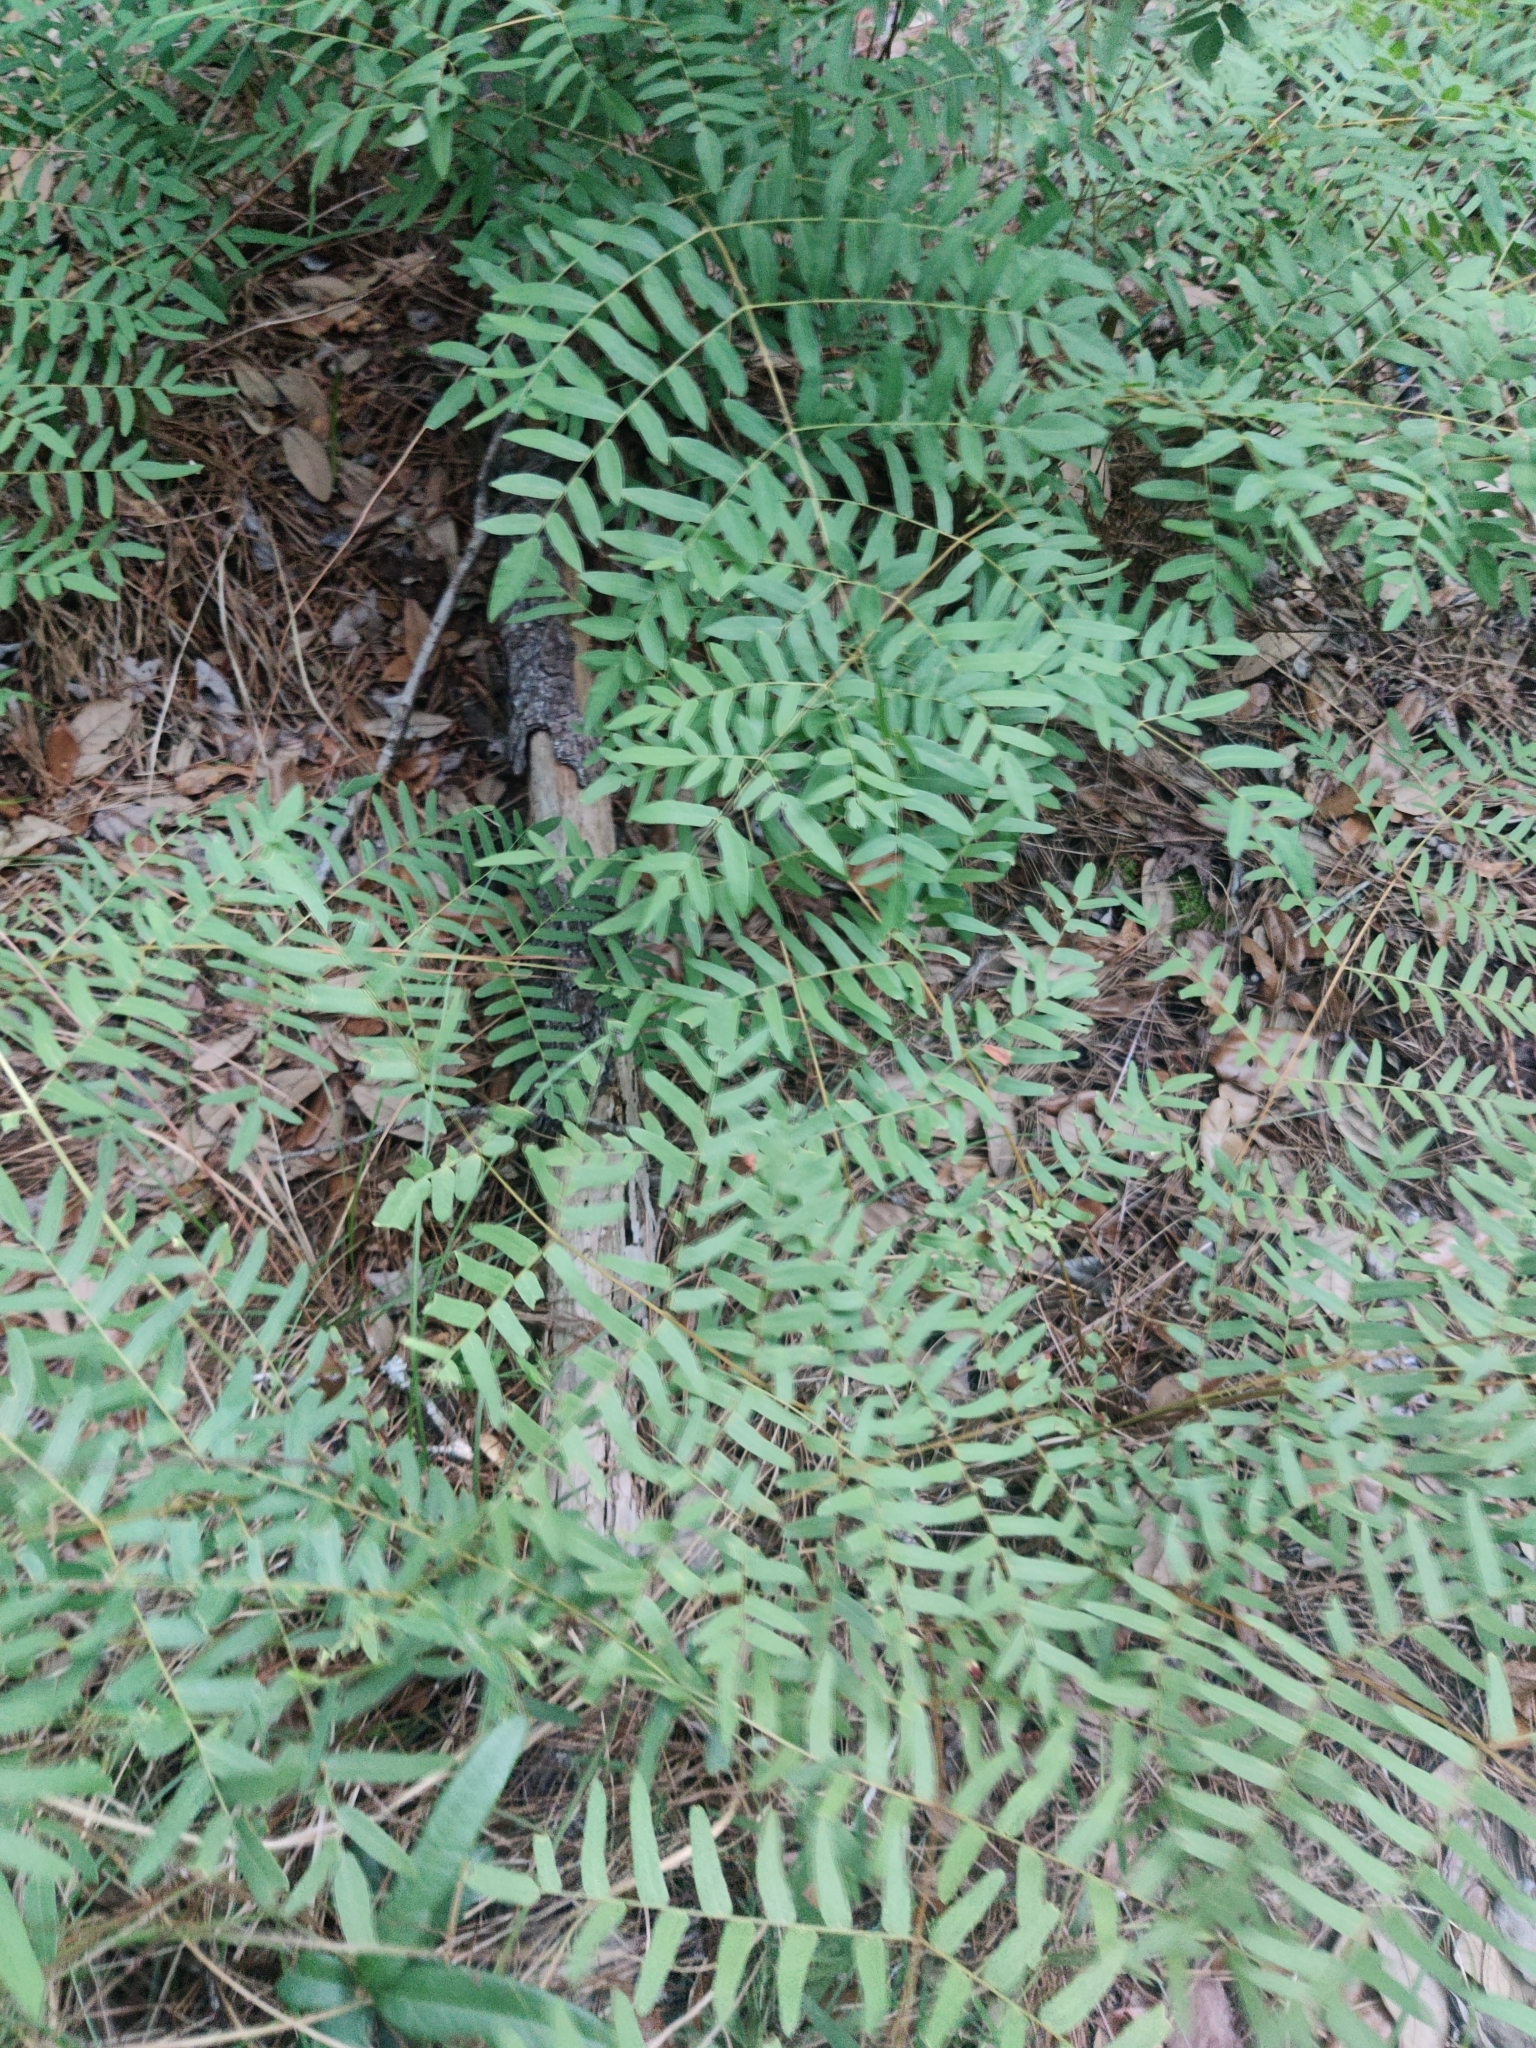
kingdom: Plantae
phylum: Tracheophyta
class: Polypodiopsida
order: Osmundales
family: Osmundaceae
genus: Osmunda
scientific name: Osmunda spectabilis
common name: American royal fern
